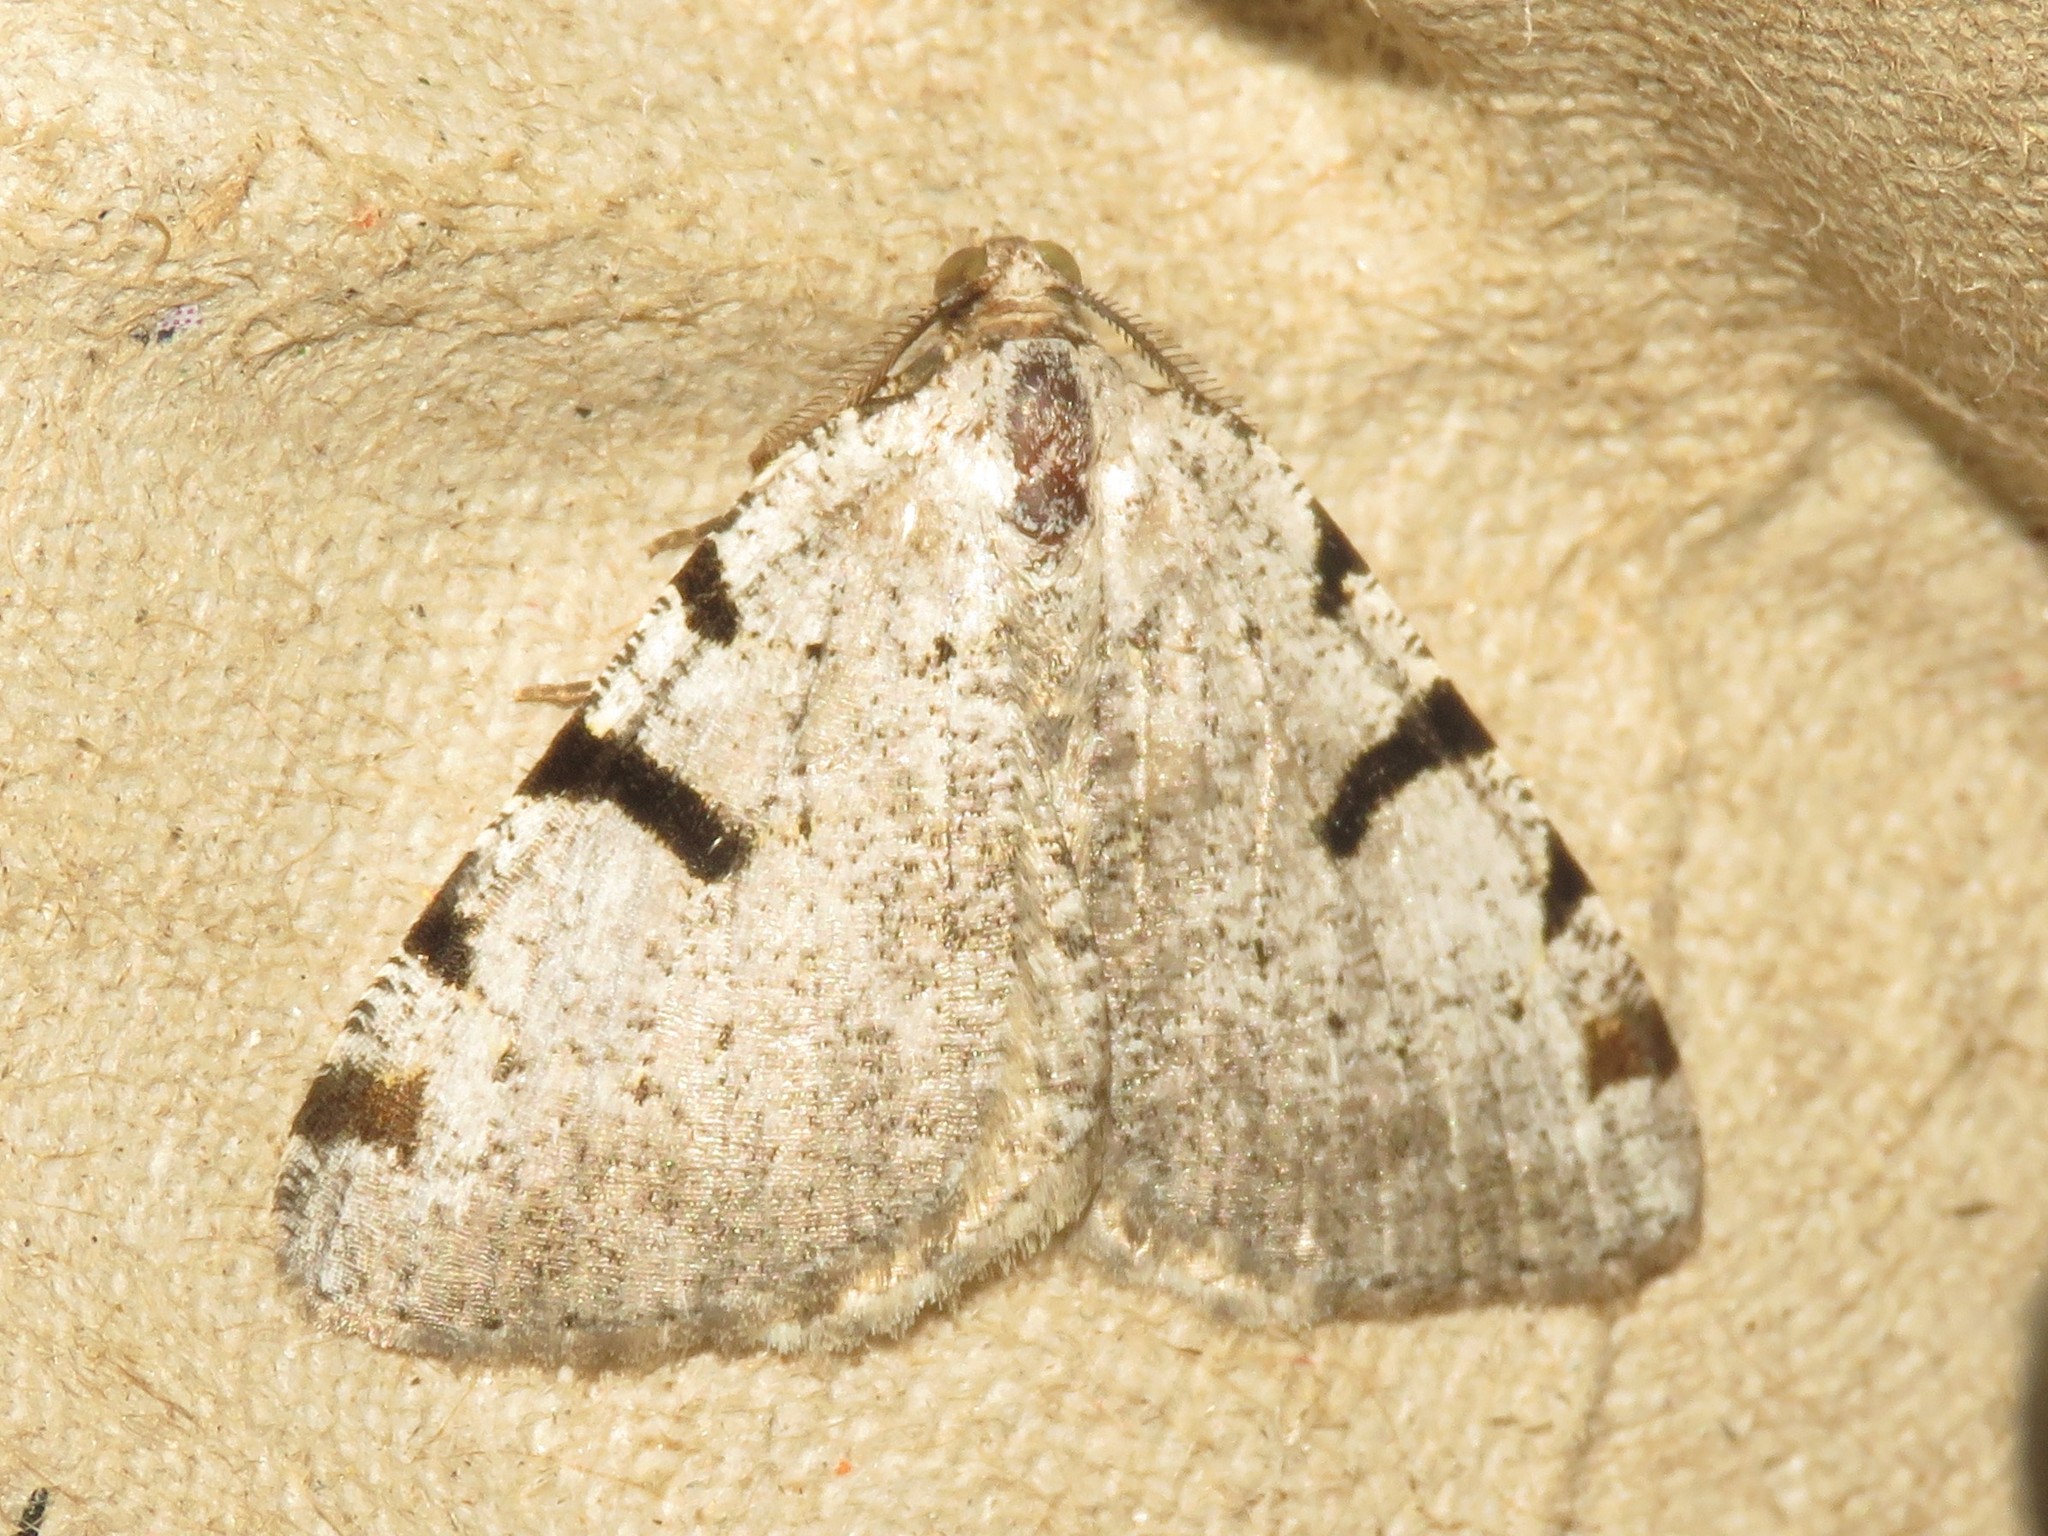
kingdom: Animalia
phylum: Arthropoda
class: Insecta
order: Lepidoptera
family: Geometridae
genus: Macaria
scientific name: Macaria subcessaria
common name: Barred angle
